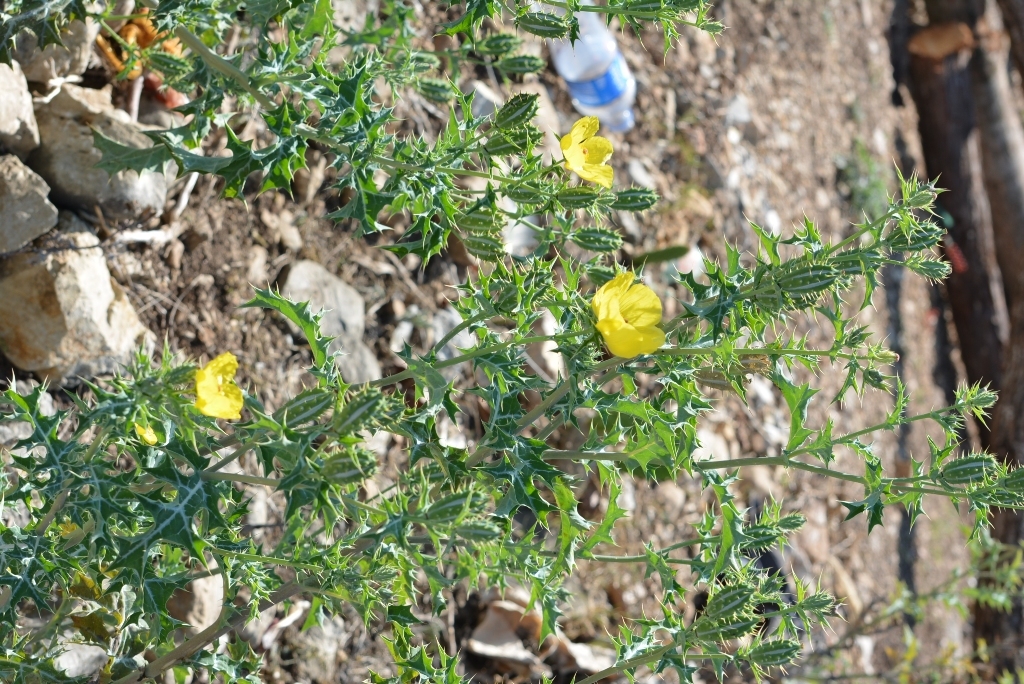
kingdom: Plantae
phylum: Tracheophyta
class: Magnoliopsida
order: Ranunculales
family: Papaveraceae
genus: Argemone
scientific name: Argemone mexicana
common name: Mexican poppy
